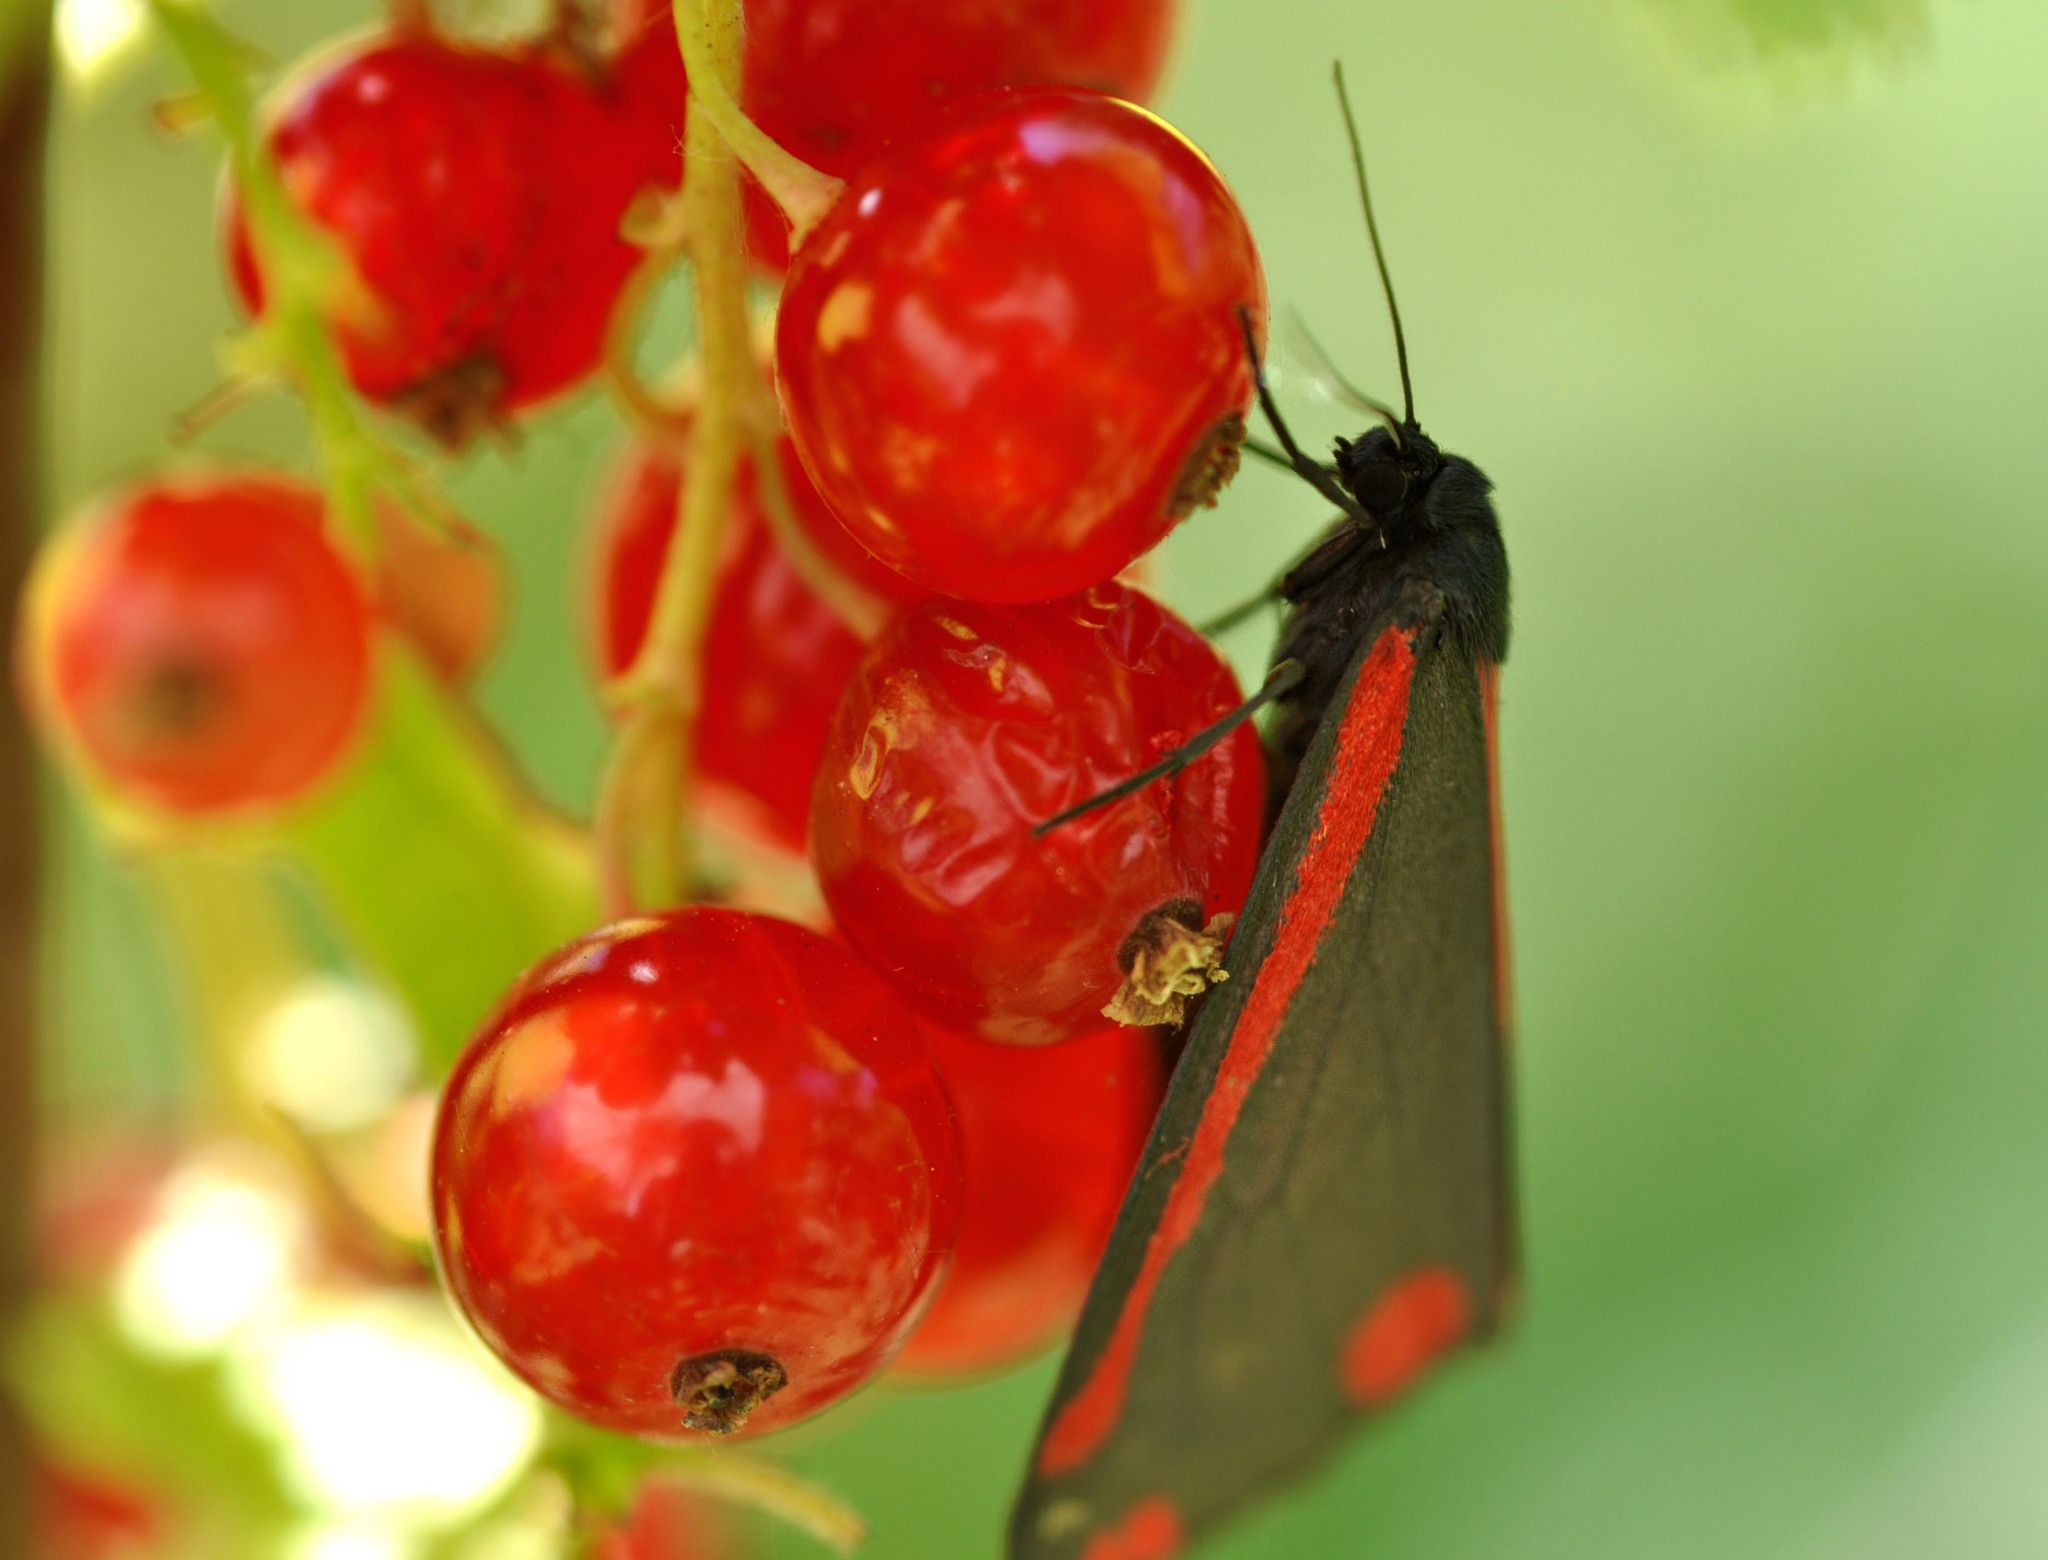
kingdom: Animalia
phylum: Arthropoda
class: Insecta
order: Lepidoptera
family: Erebidae
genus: Tyria
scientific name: Tyria jacobaeae
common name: Cinnabar
